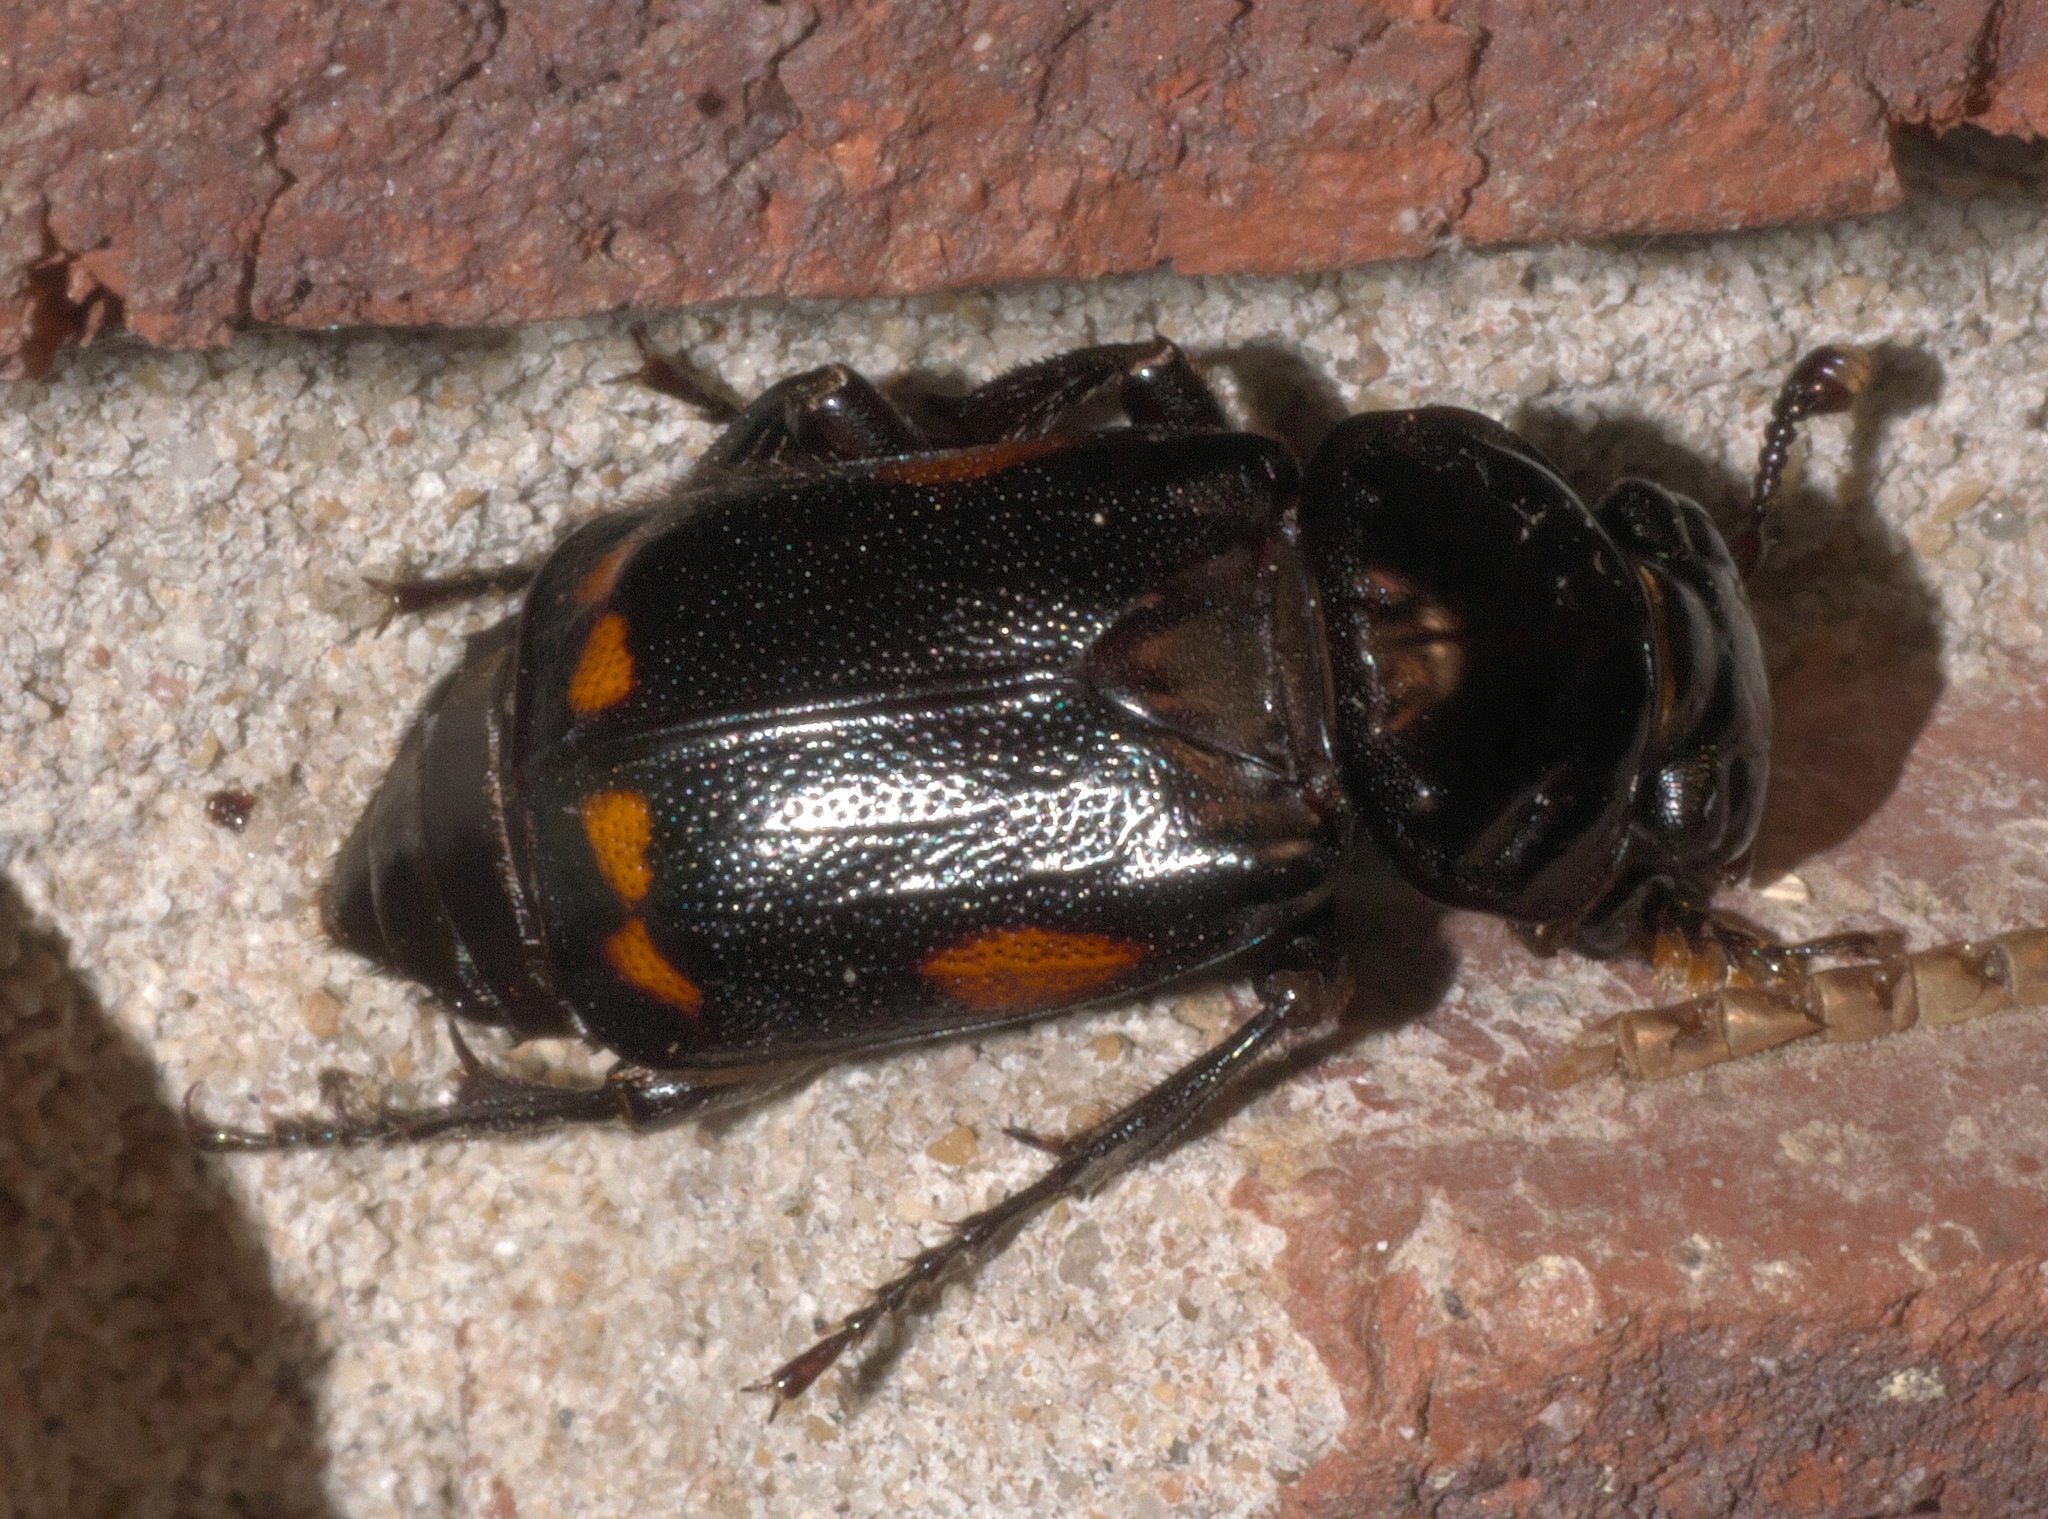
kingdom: Animalia
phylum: Arthropoda
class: Insecta
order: Coleoptera
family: Staphylinidae
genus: Nicrophorus
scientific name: Nicrophorus pustulatus
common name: Pustulated carrion beetle
